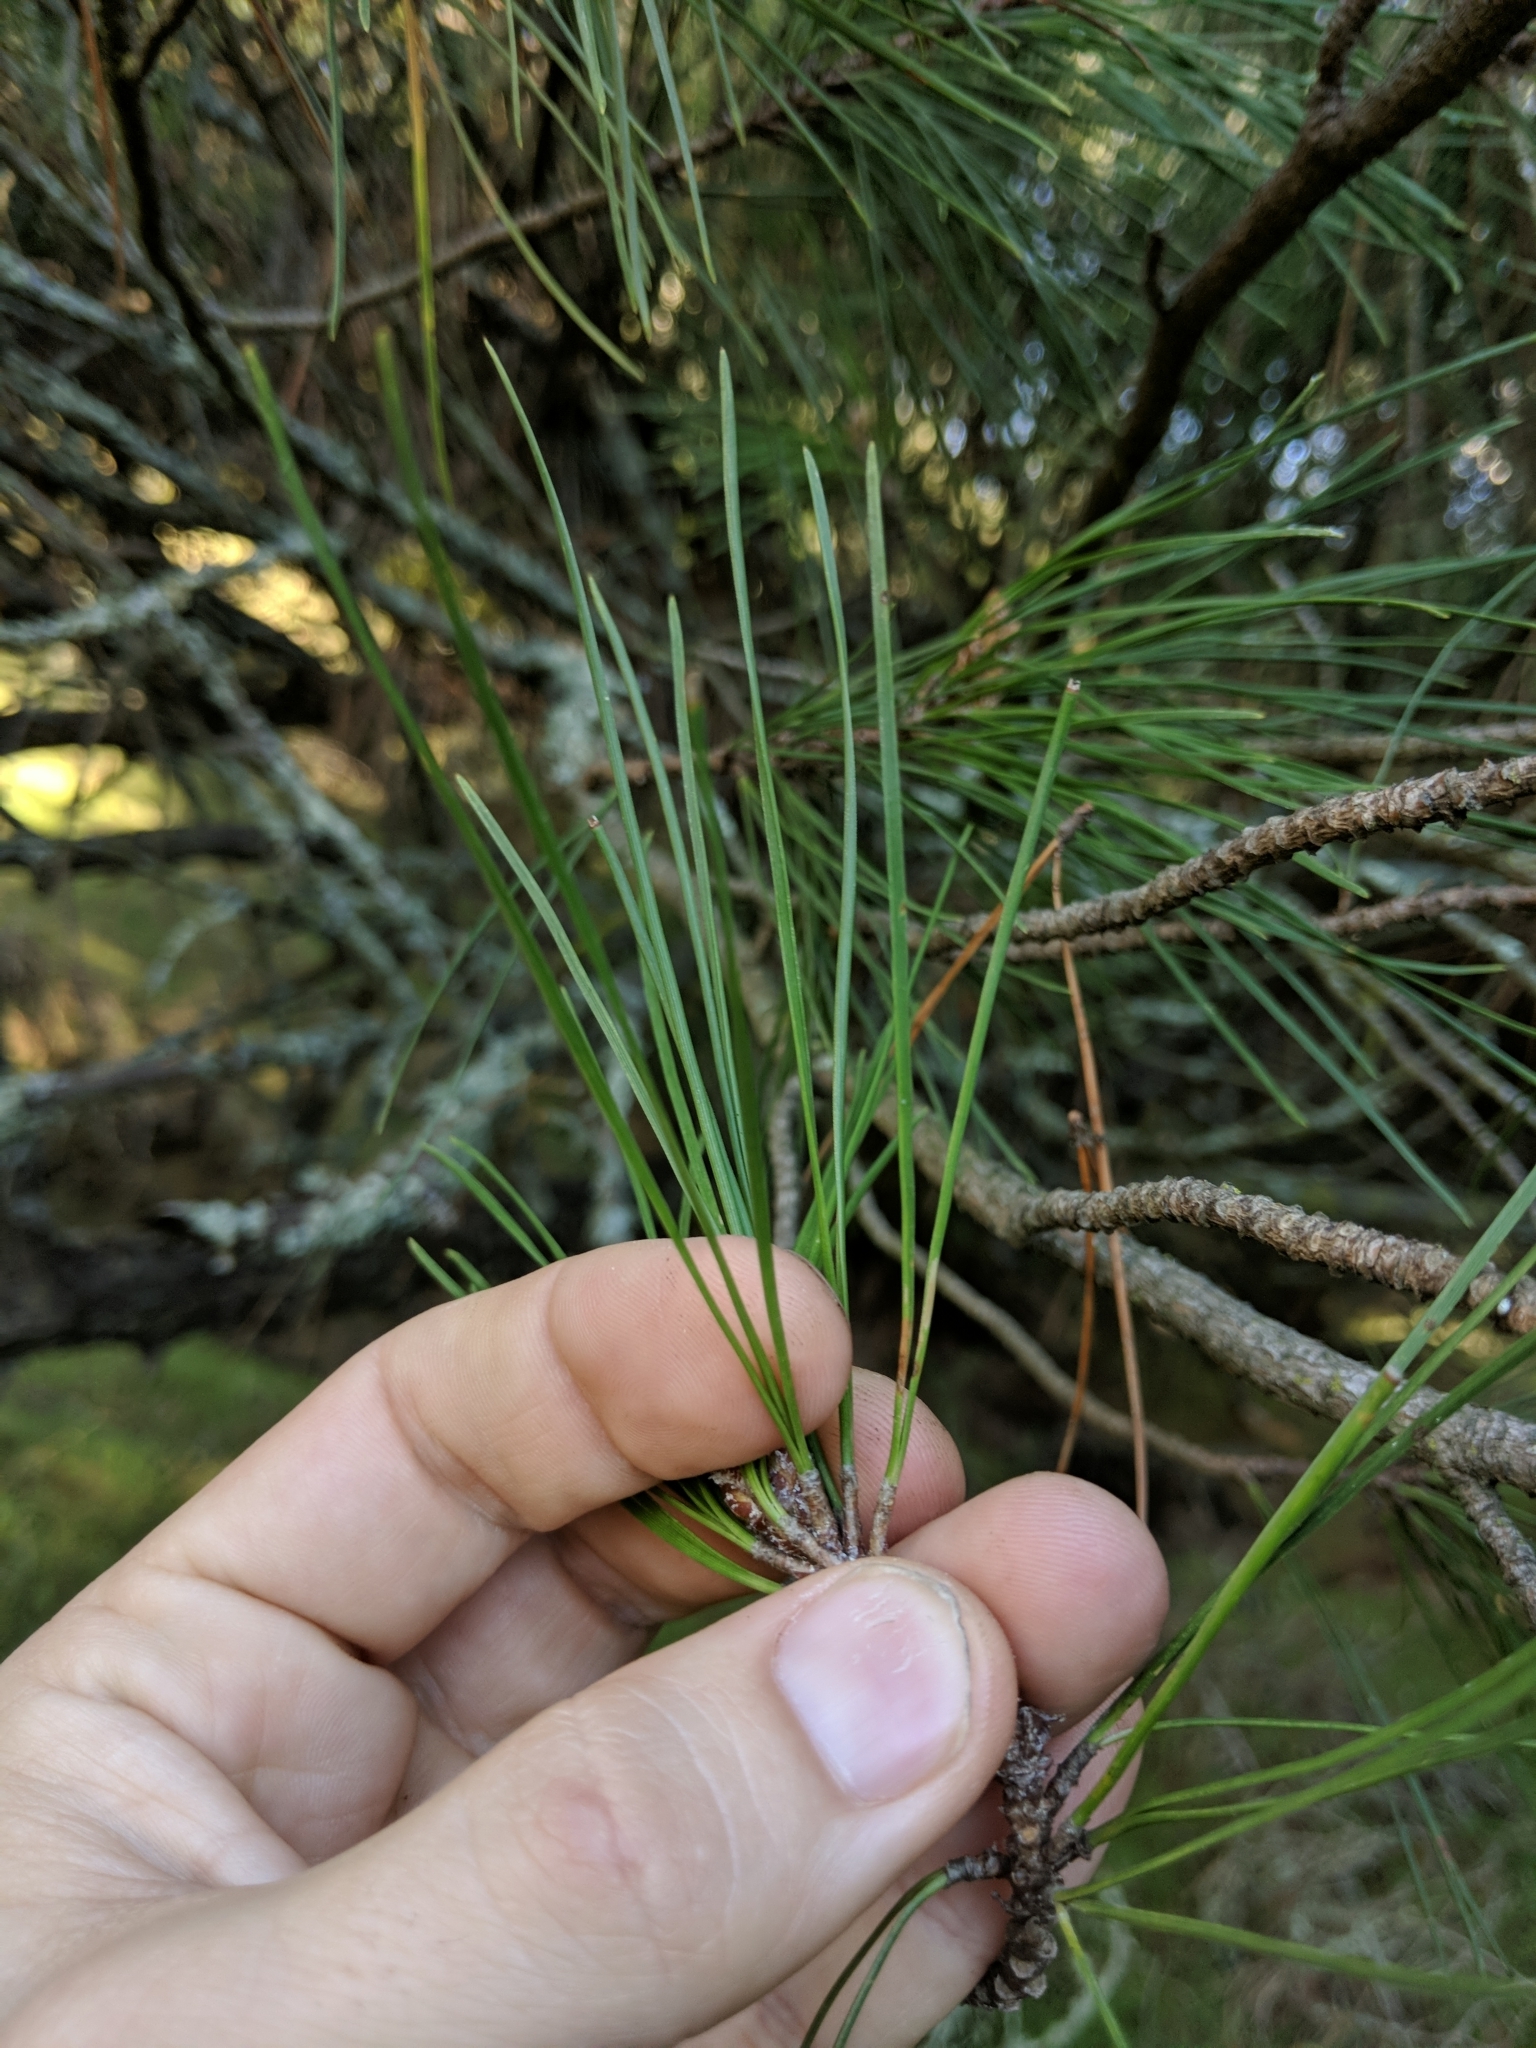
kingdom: Plantae
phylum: Tracheophyta
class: Pinopsida
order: Pinales
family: Pinaceae
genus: Pinus
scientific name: Pinus radiata
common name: Monterey pine
